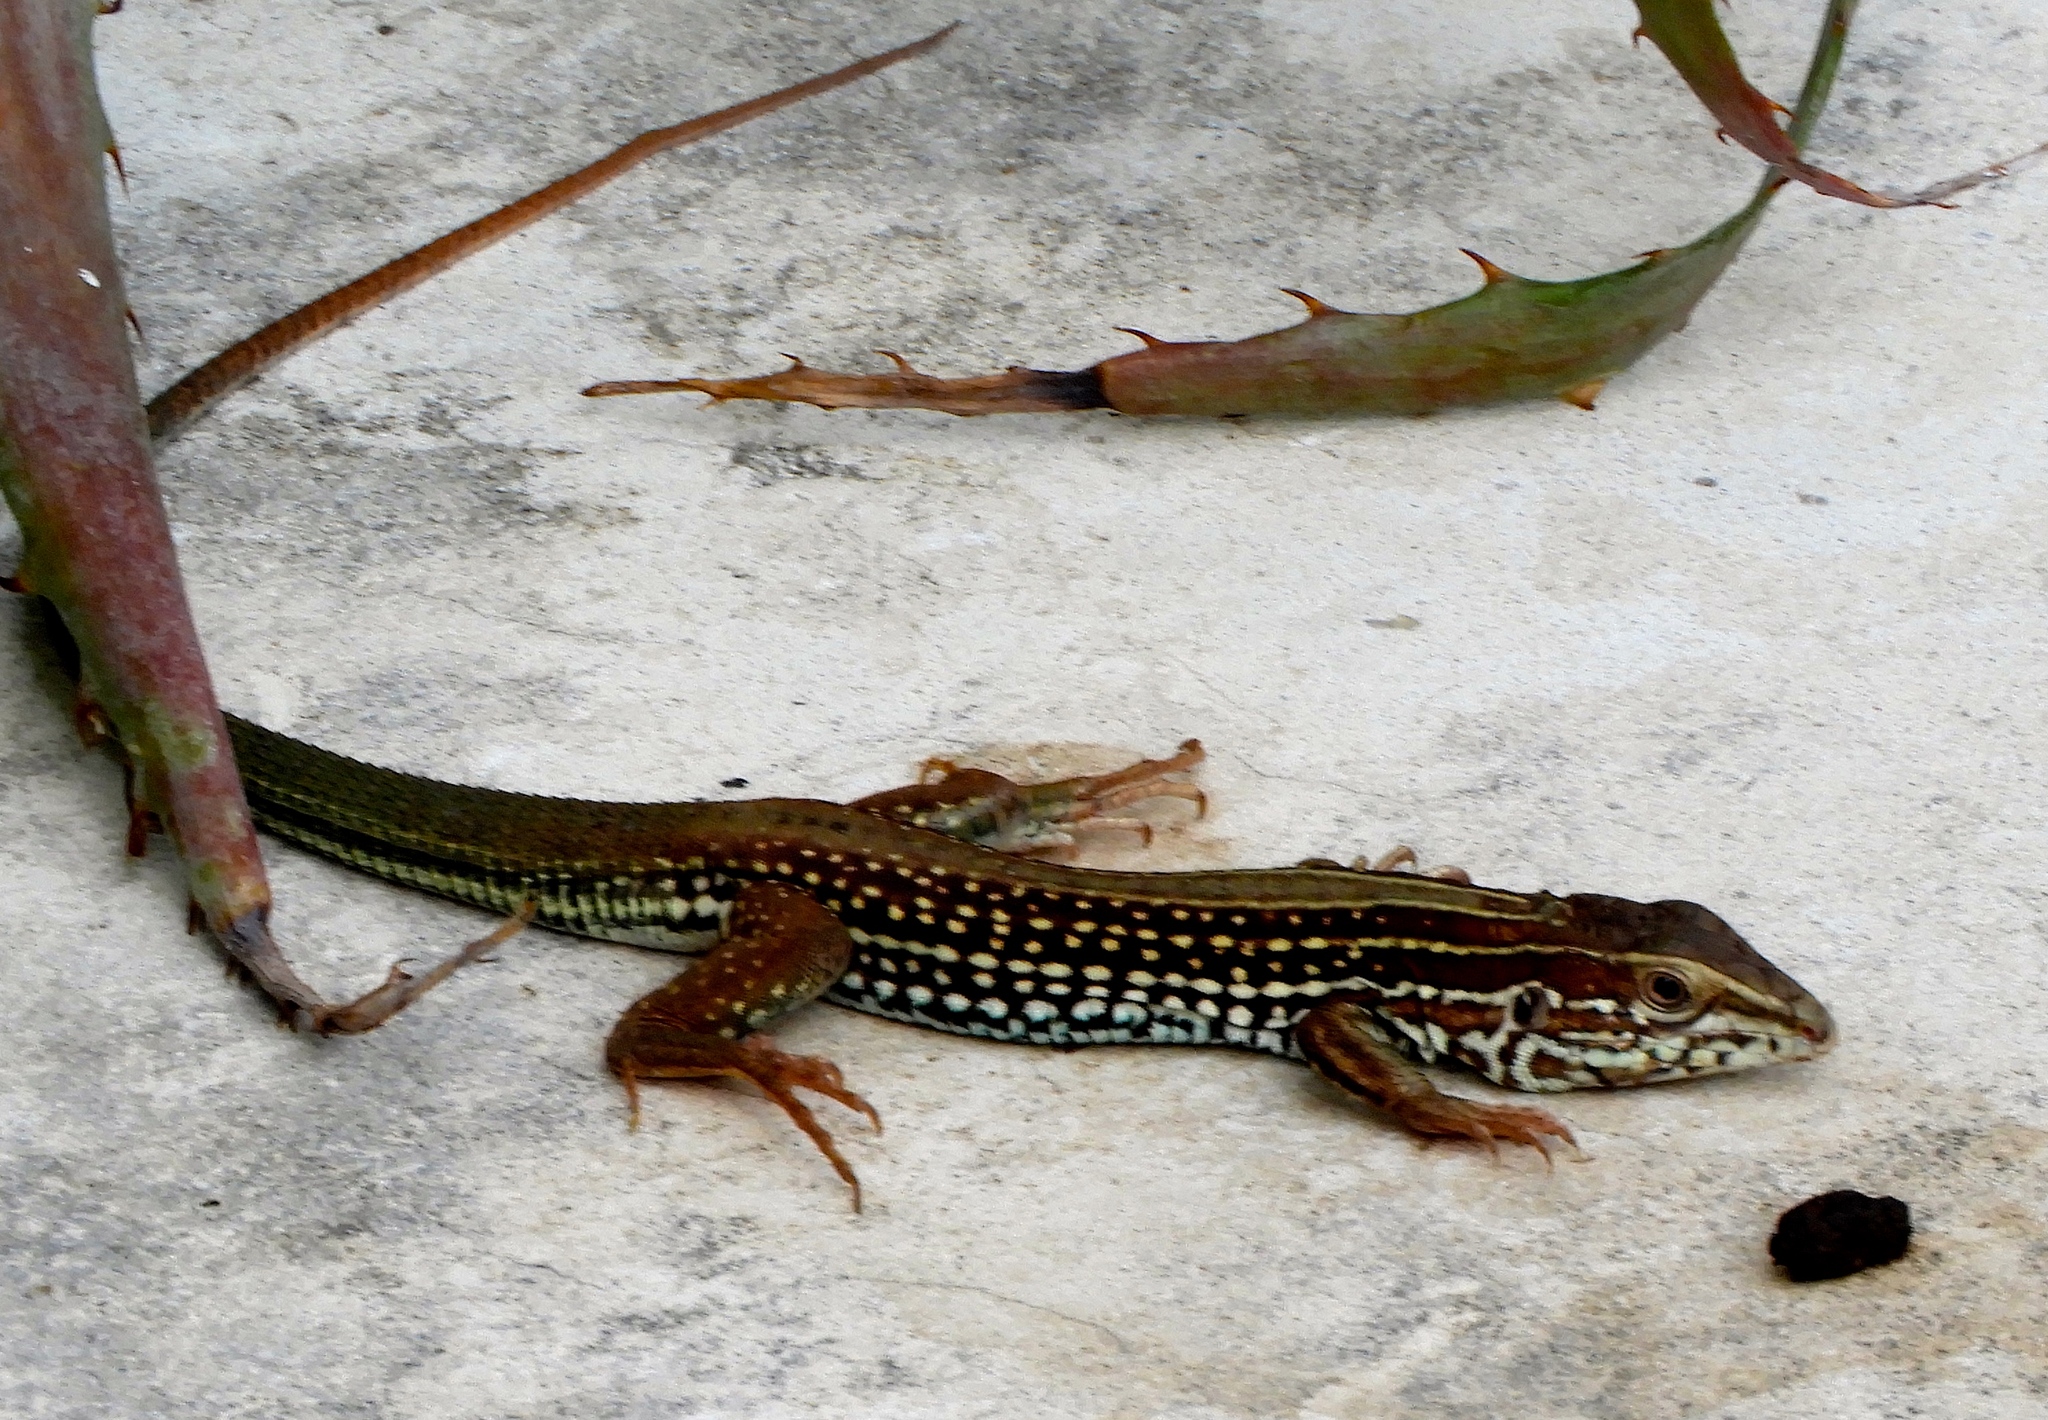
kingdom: Animalia
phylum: Chordata
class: Squamata
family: Teiidae
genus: Aspidoscelis
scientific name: Aspidoscelis costatus
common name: Western mexico whiptail
